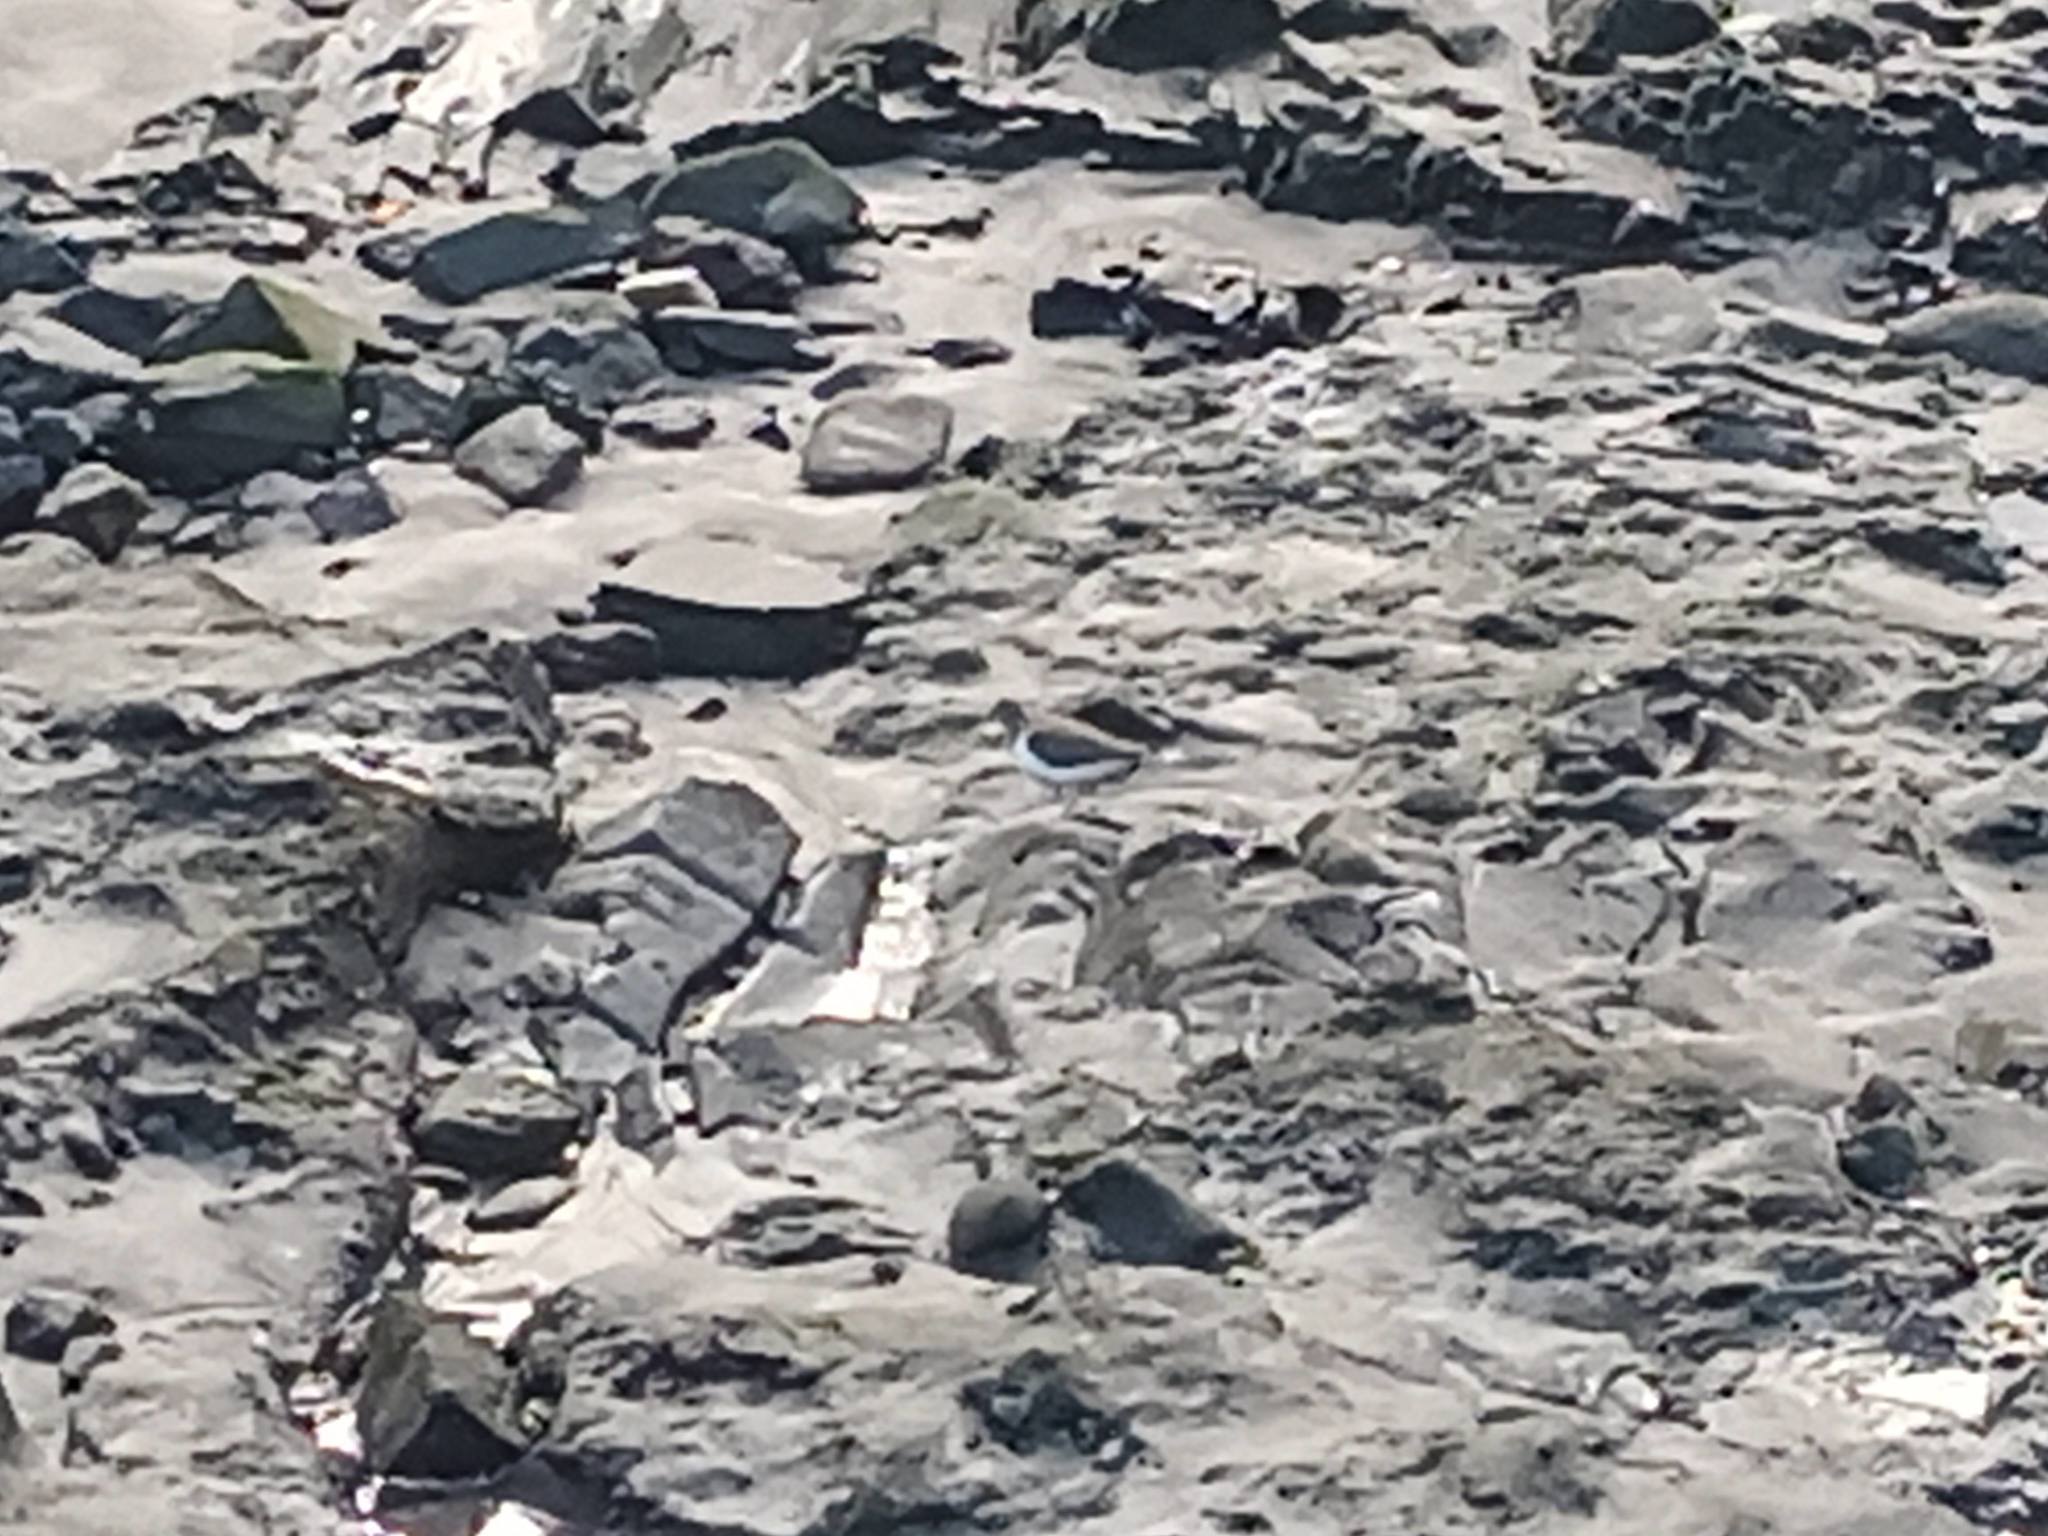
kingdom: Animalia
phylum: Chordata
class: Aves
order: Charadriiformes
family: Scolopacidae
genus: Actitis
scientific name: Actitis hypoleucos
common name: Common sandpiper
